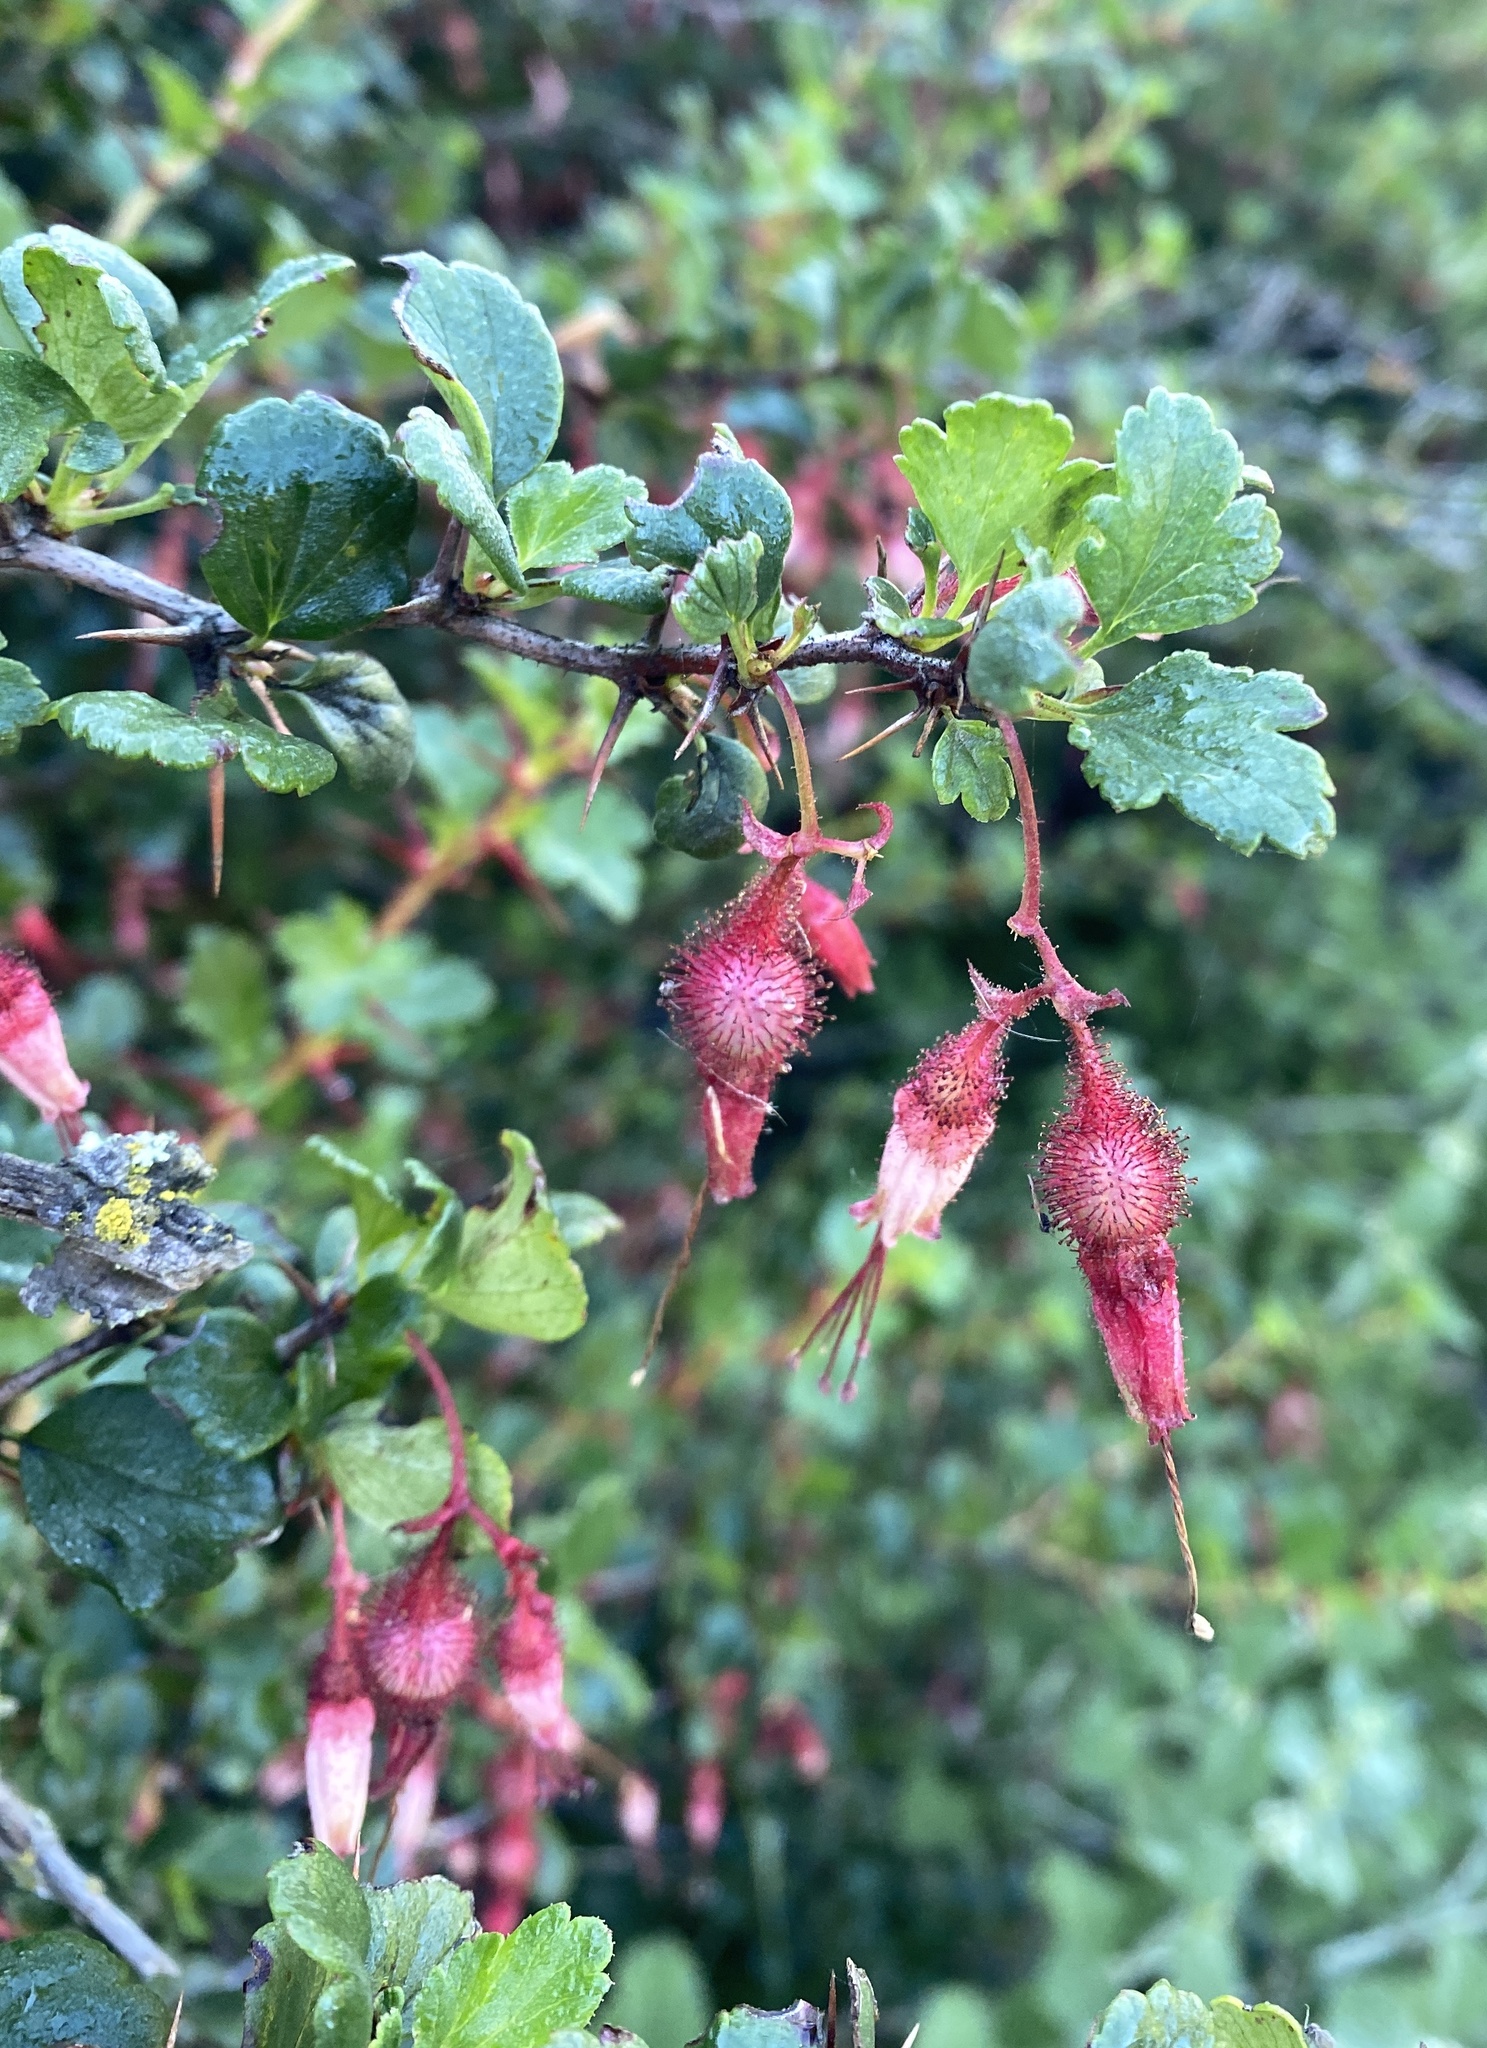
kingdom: Plantae
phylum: Tracheophyta
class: Magnoliopsida
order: Saxifragales
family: Grossulariaceae
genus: Ribes
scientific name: Ribes speciosum
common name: Fuchsia-flower gooseberry
